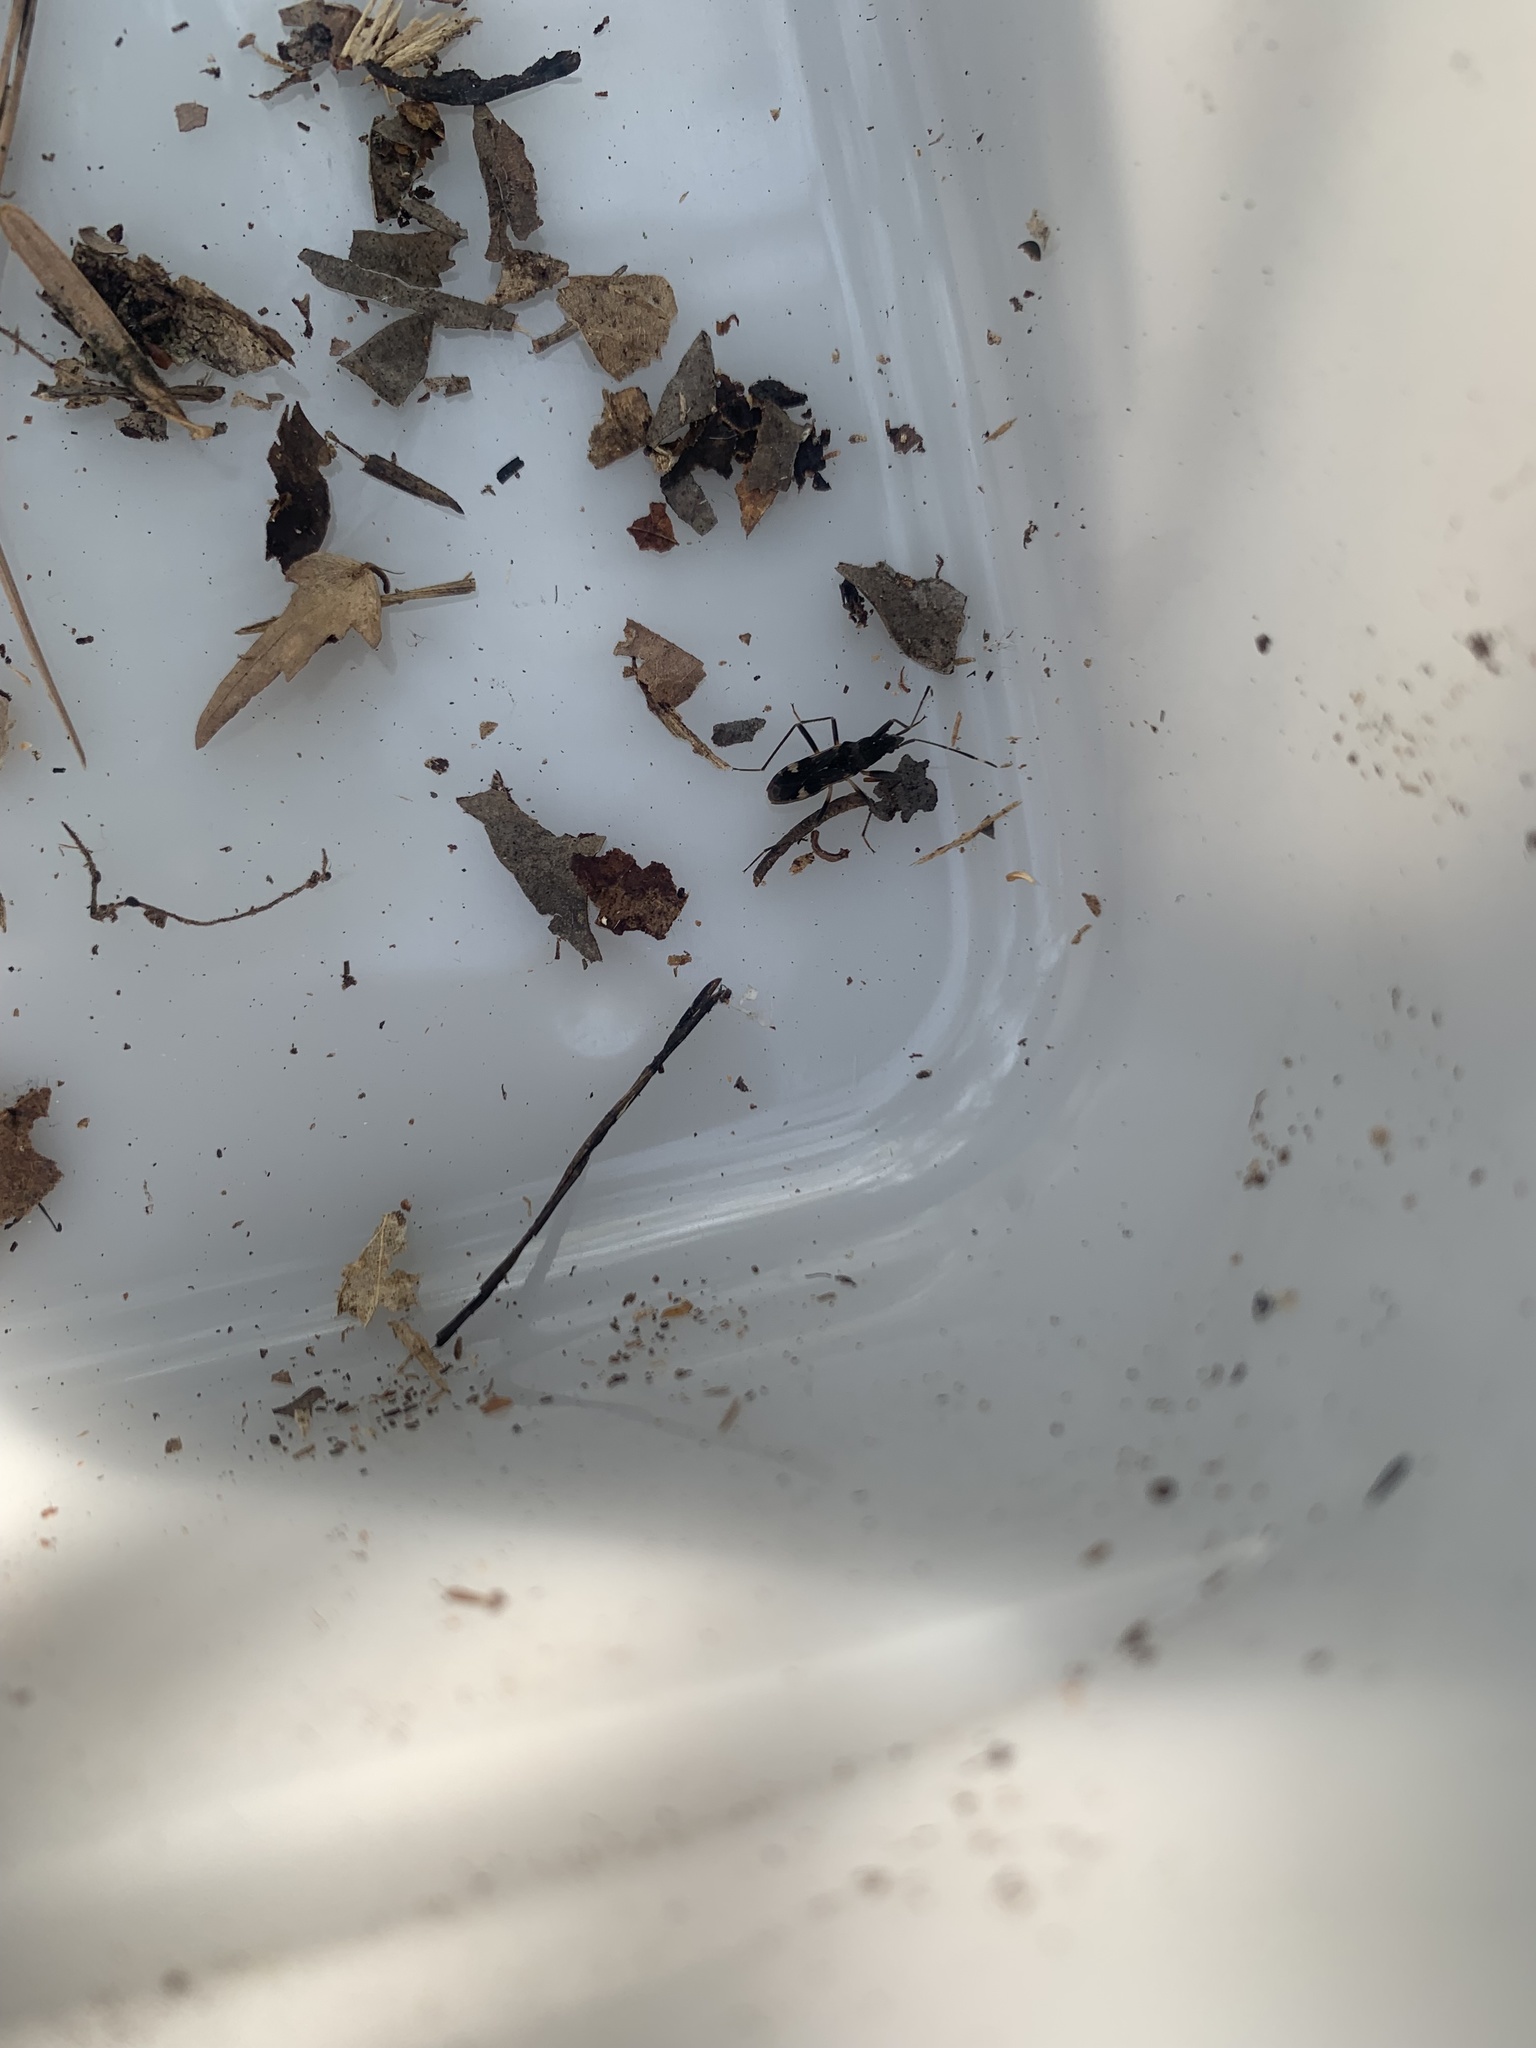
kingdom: Animalia
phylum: Arthropoda
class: Insecta
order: Hemiptera
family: Rhyparochromidae
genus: Metochus
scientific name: Metochus abbreviatus
